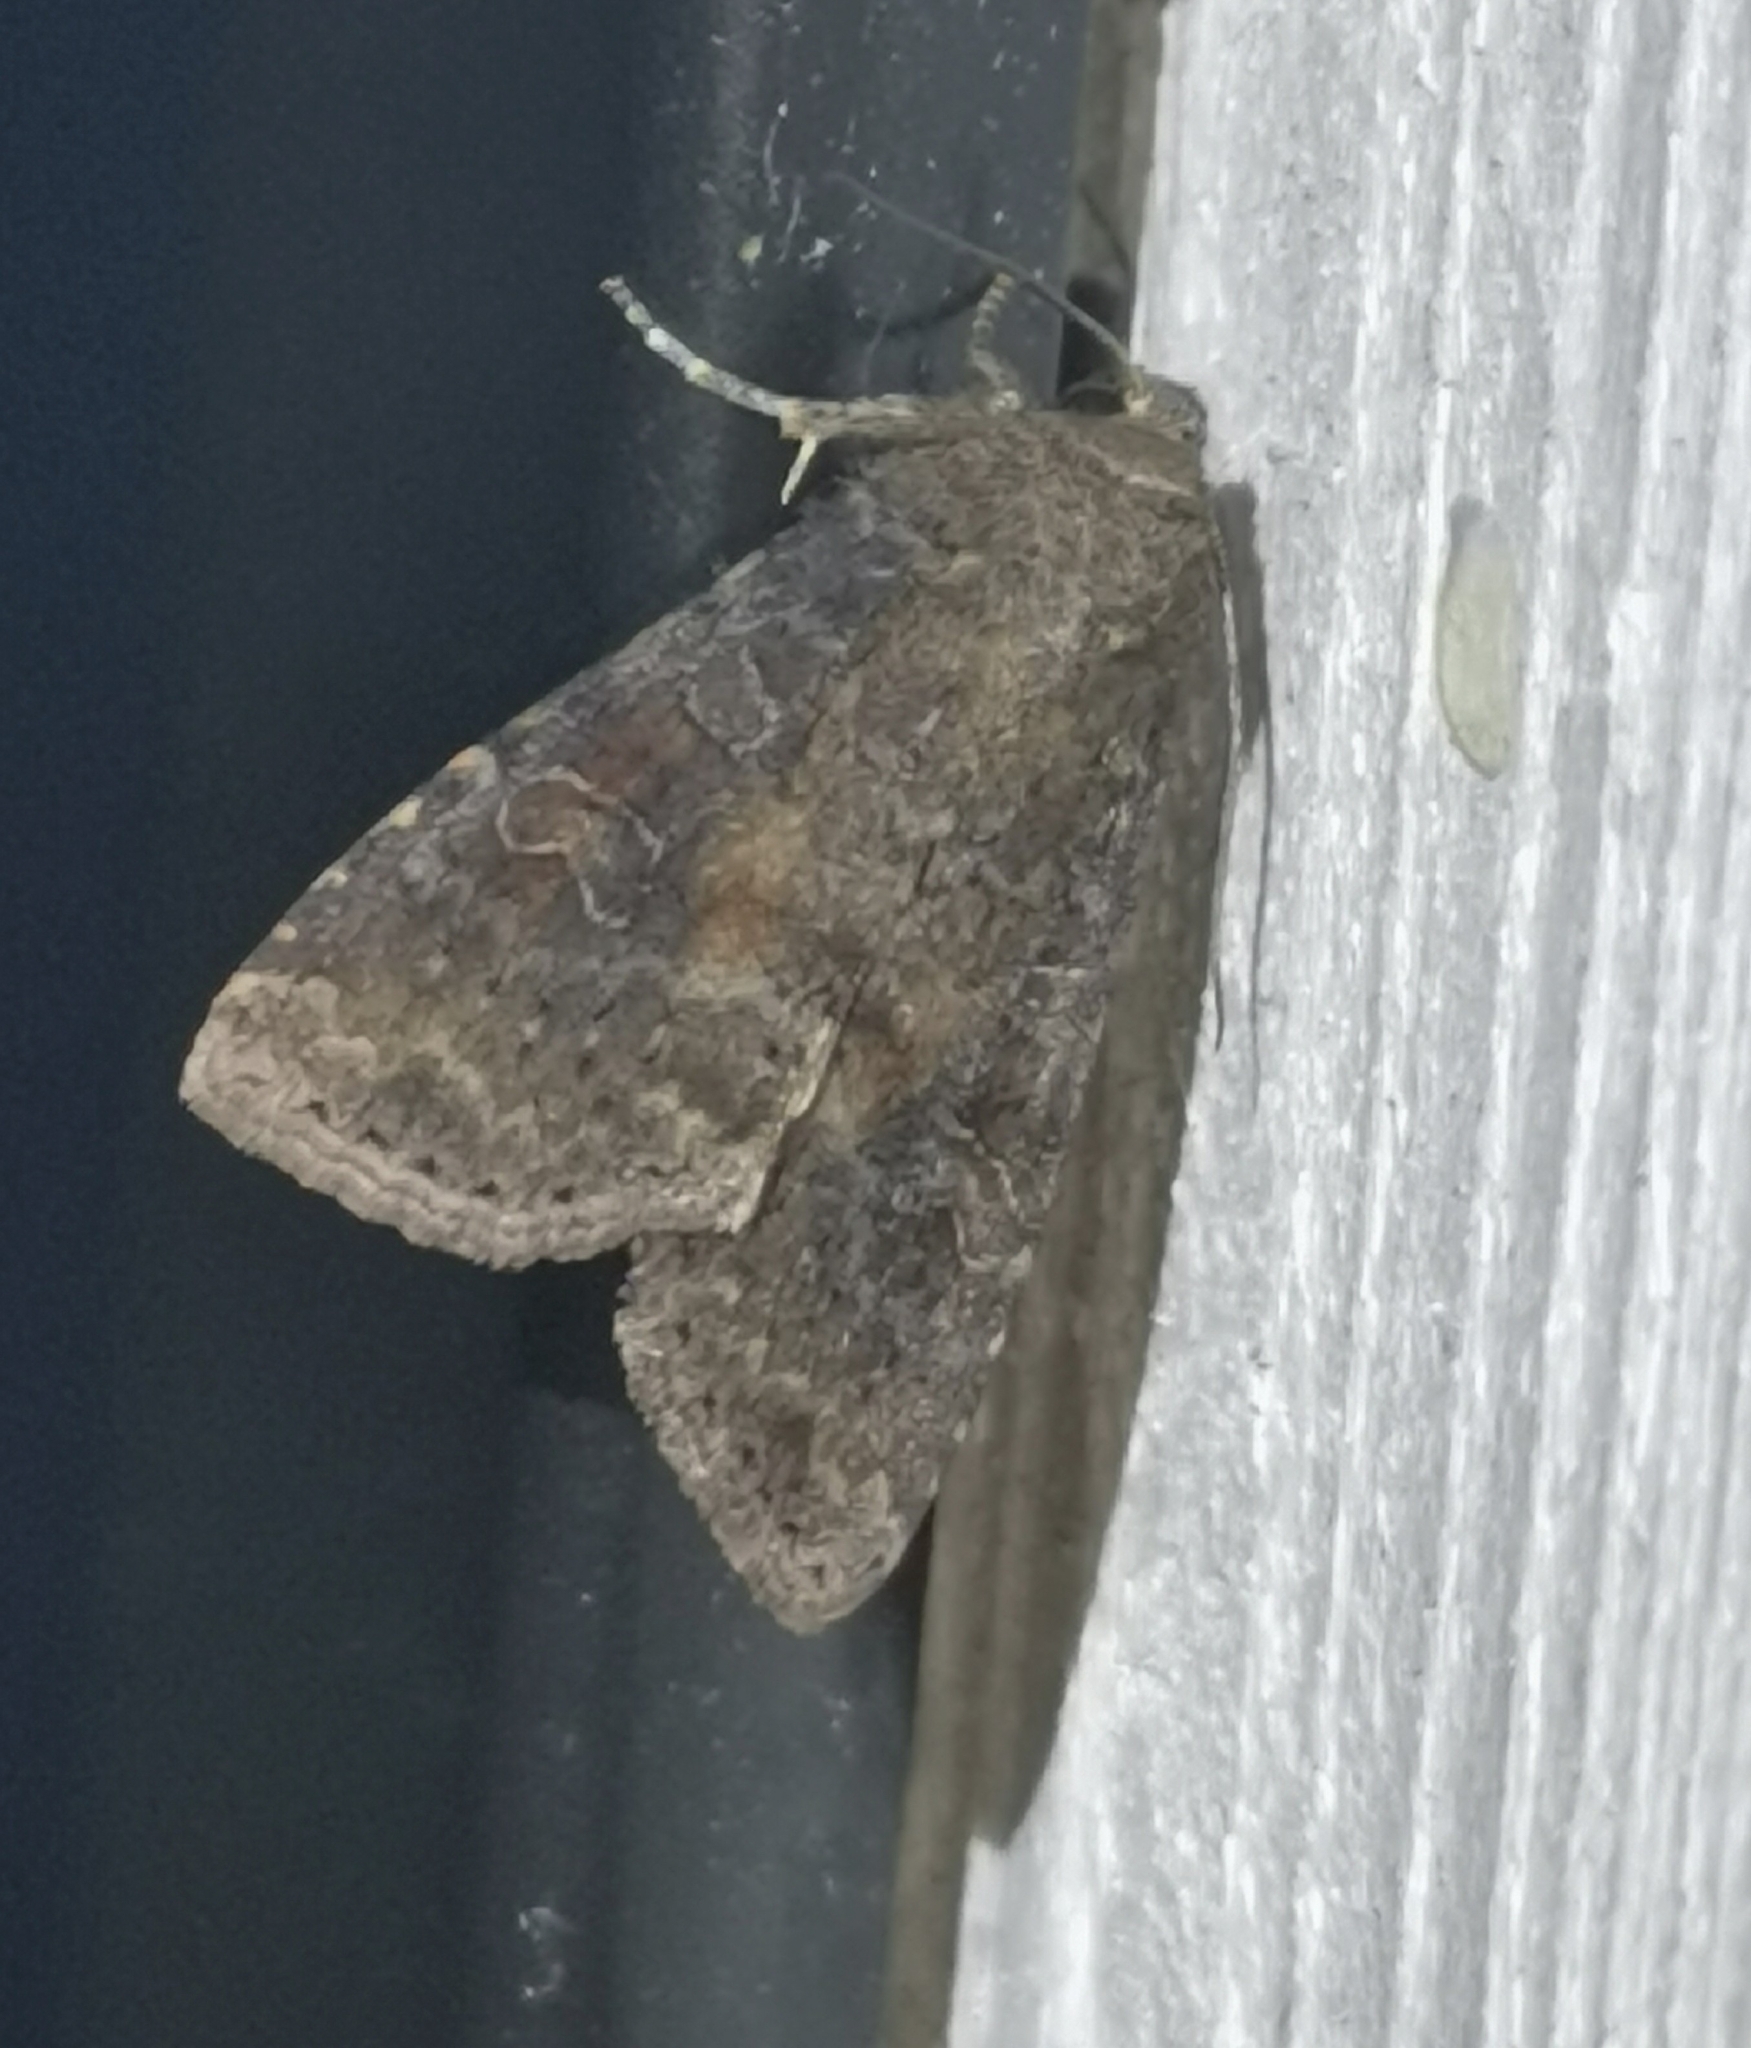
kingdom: Animalia
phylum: Arthropoda
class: Insecta
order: Lepidoptera
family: Noctuidae
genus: Parastichtis
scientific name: Parastichtis suspecta
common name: Suspected
